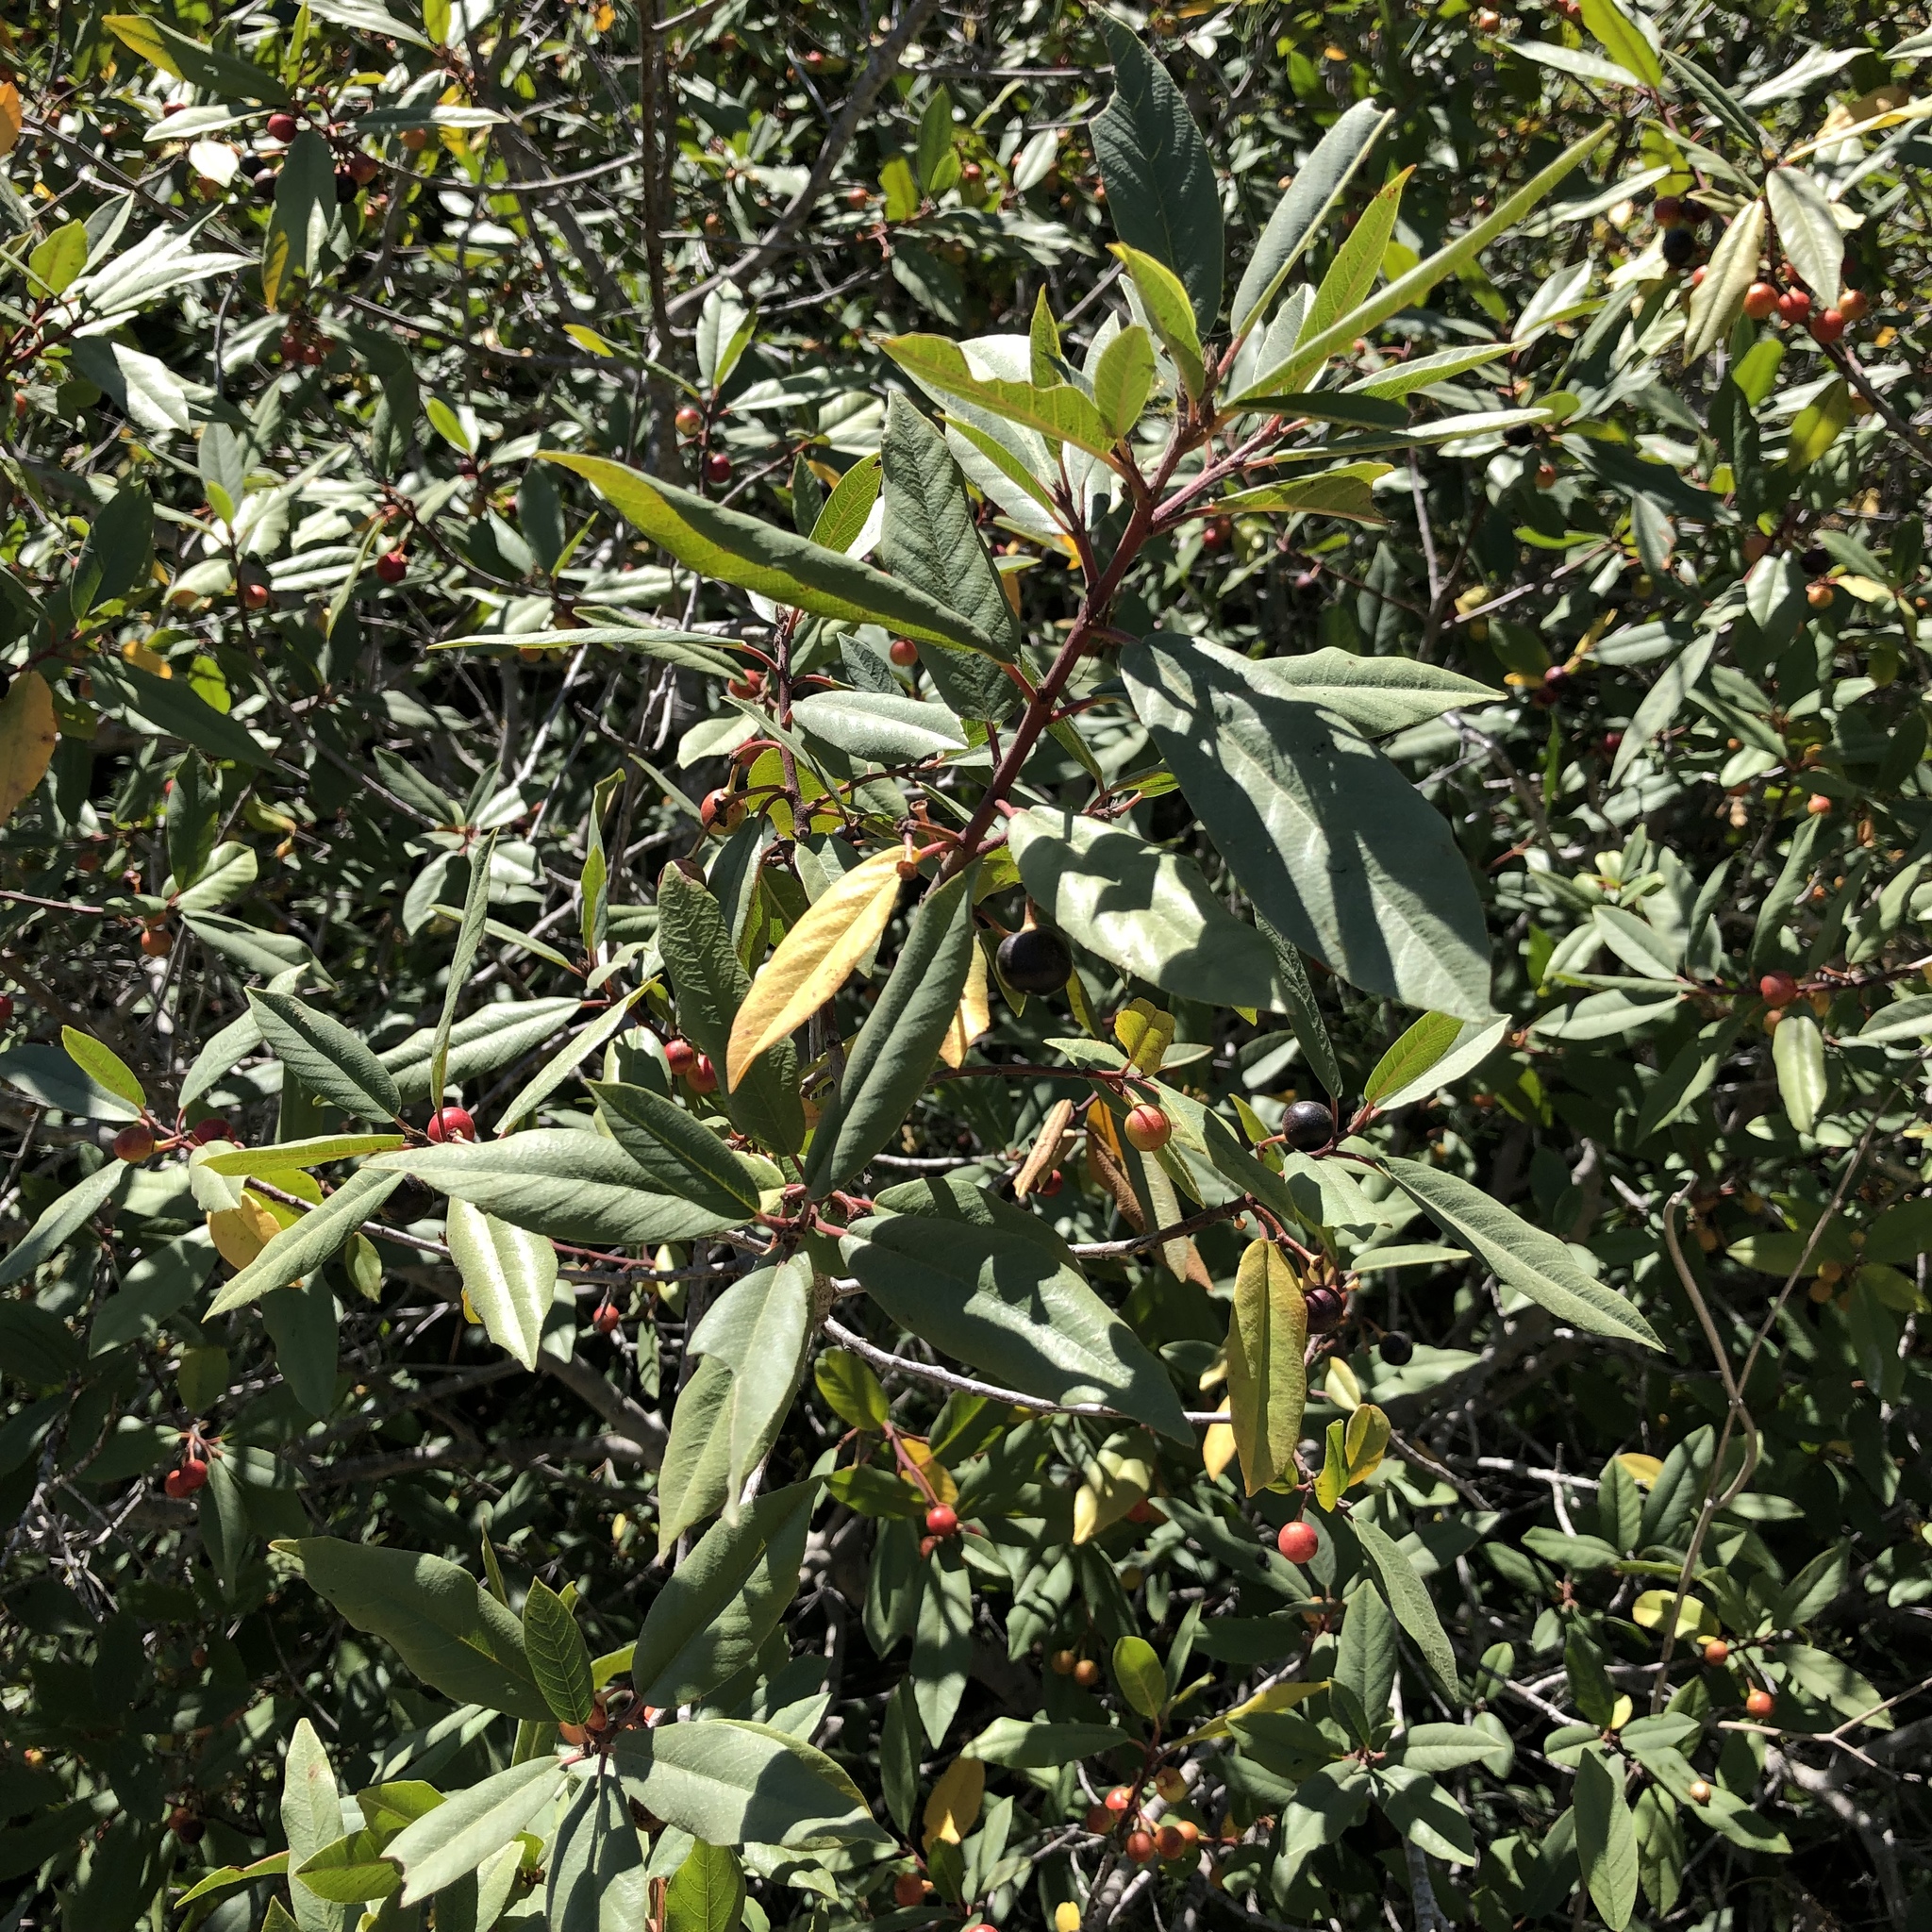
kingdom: Plantae
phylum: Tracheophyta
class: Magnoliopsida
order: Rosales
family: Rhamnaceae
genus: Frangula
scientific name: Frangula californica
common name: California buckthorn
